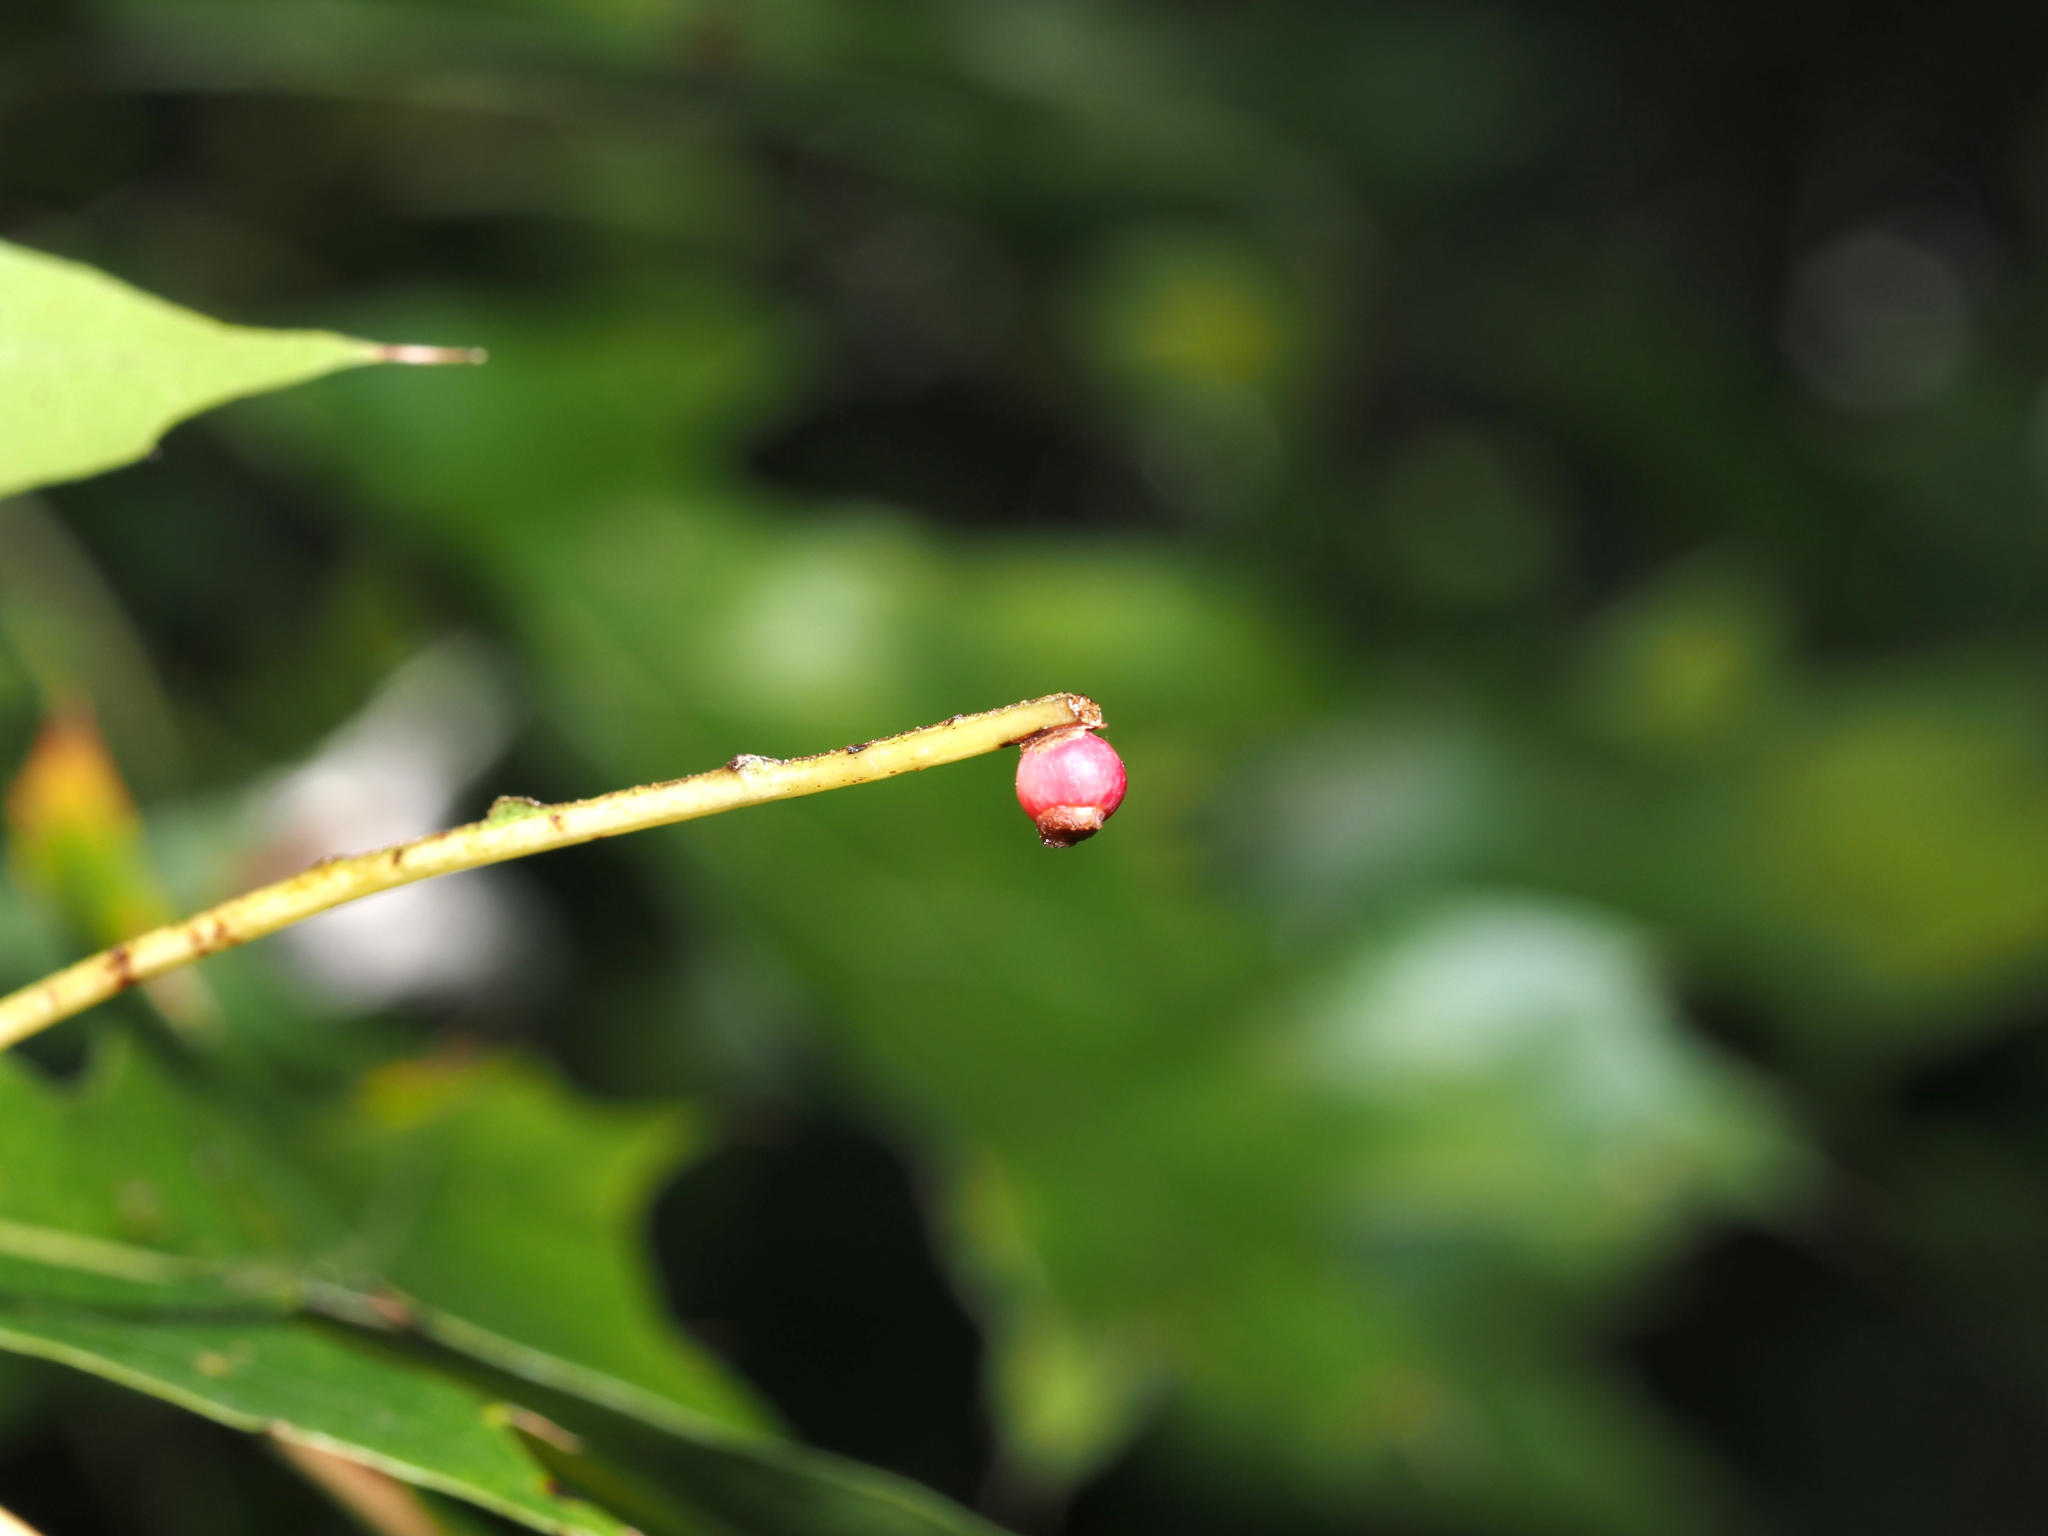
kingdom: Animalia
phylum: Arthropoda
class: Insecta
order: Hymenoptera
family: Cynipidae
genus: Kokkocynips
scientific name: Kokkocynips rileyi
